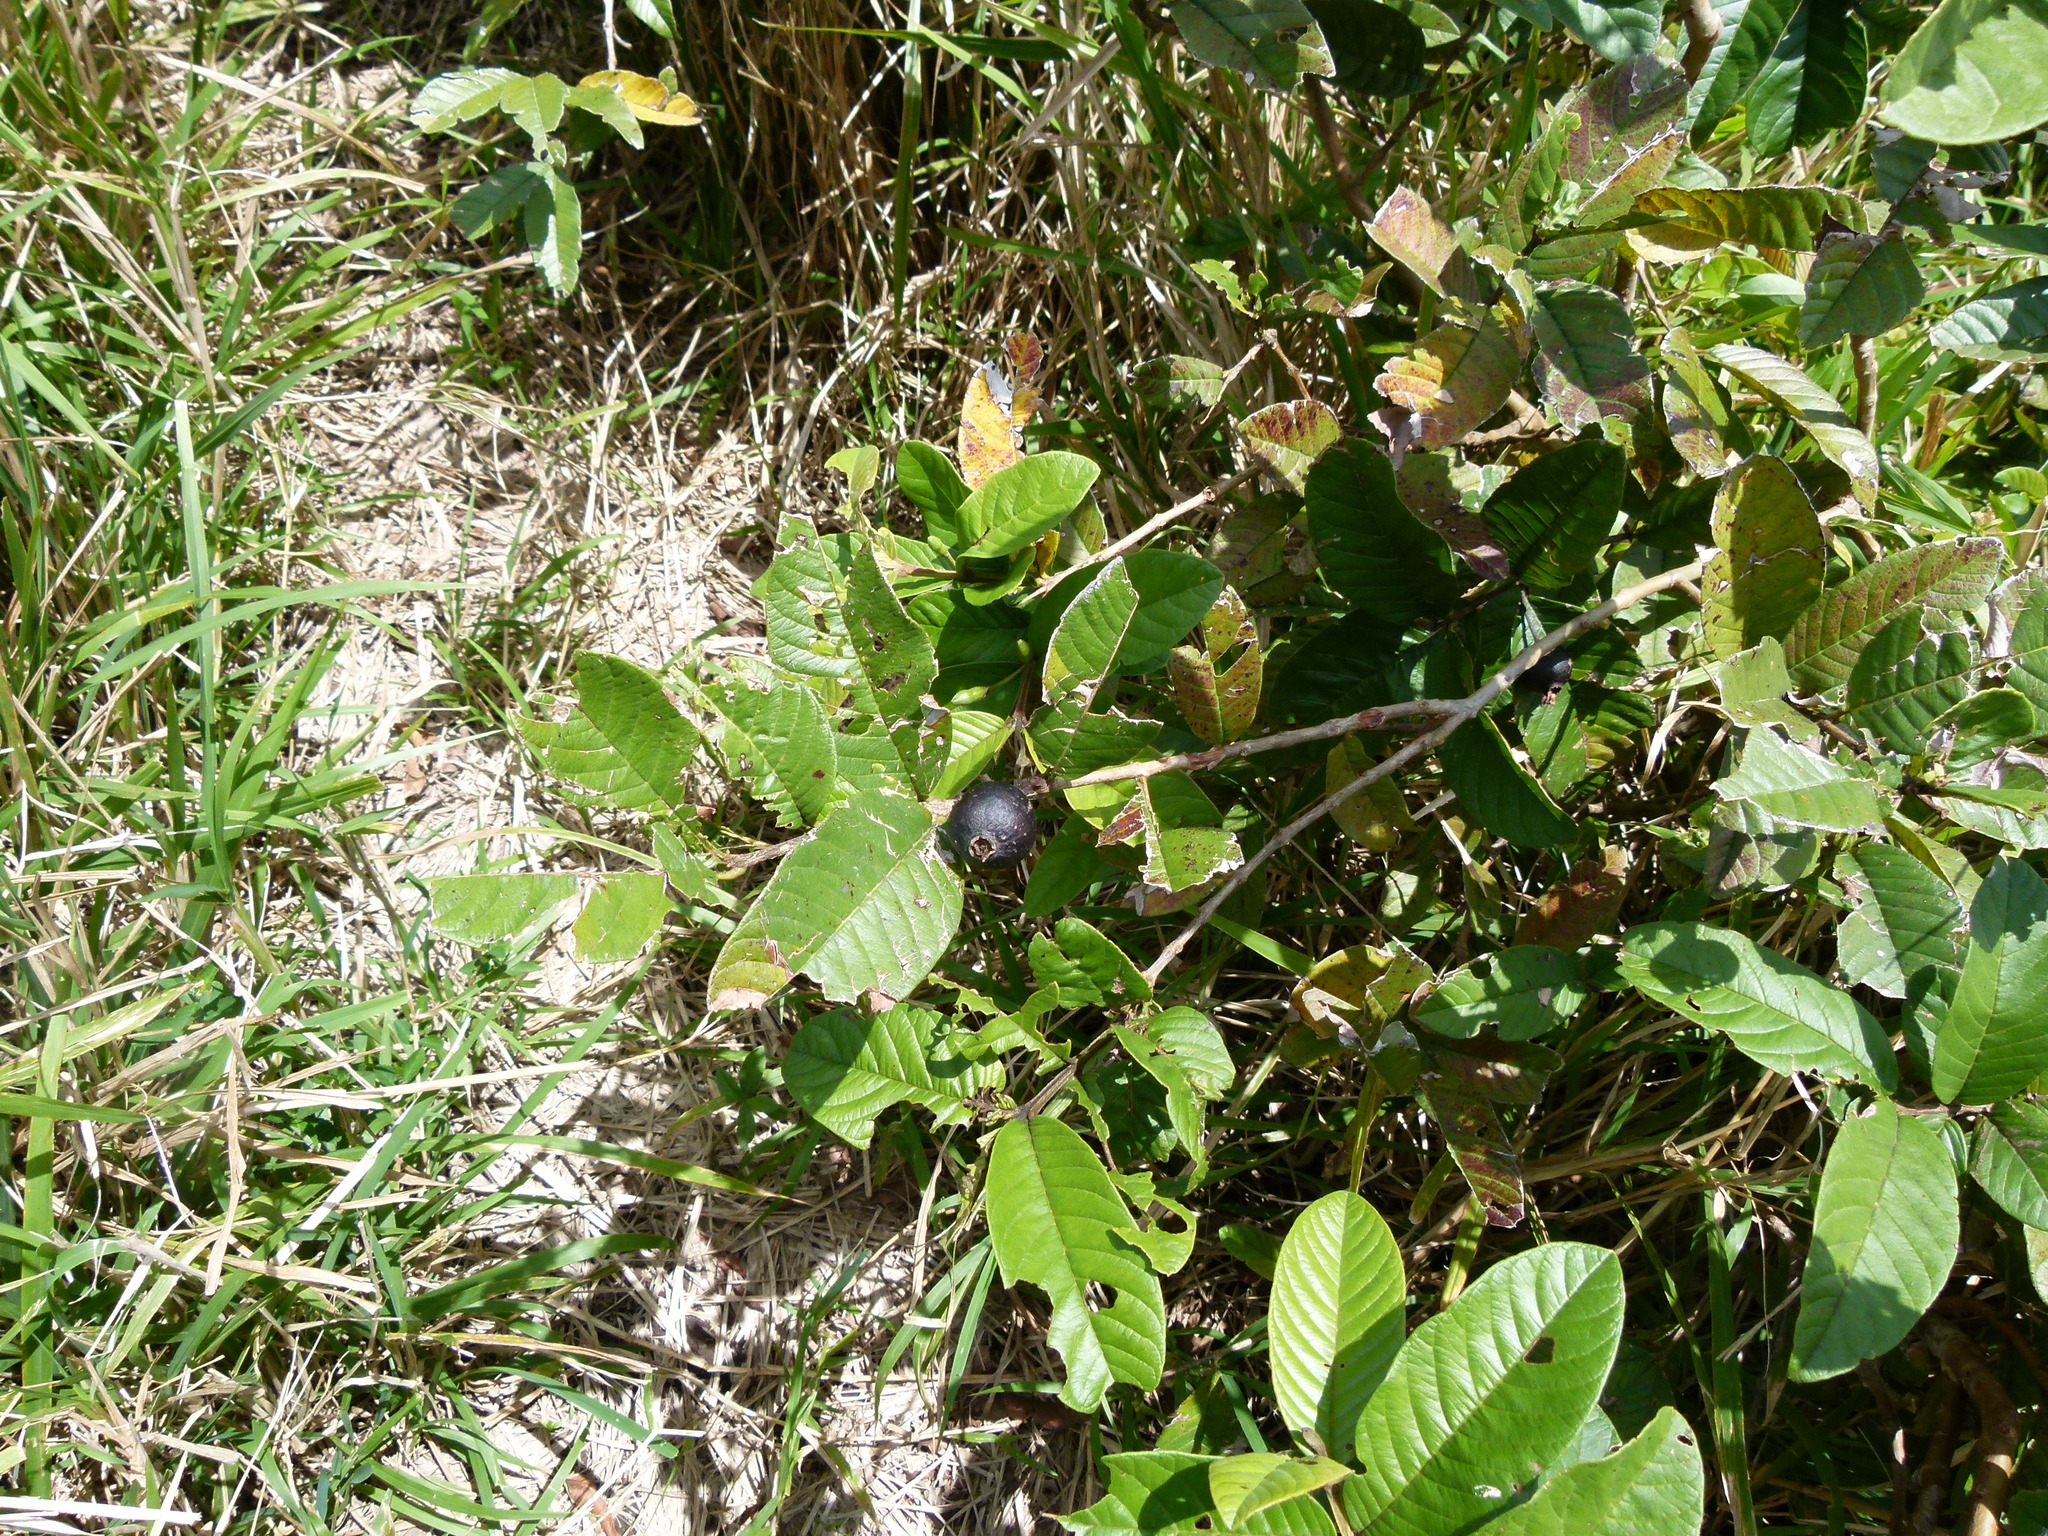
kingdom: Plantae
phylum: Tracheophyta
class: Magnoliopsida
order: Myrtales
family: Myrtaceae
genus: Psidium
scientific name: Psidium guajava
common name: Guava
